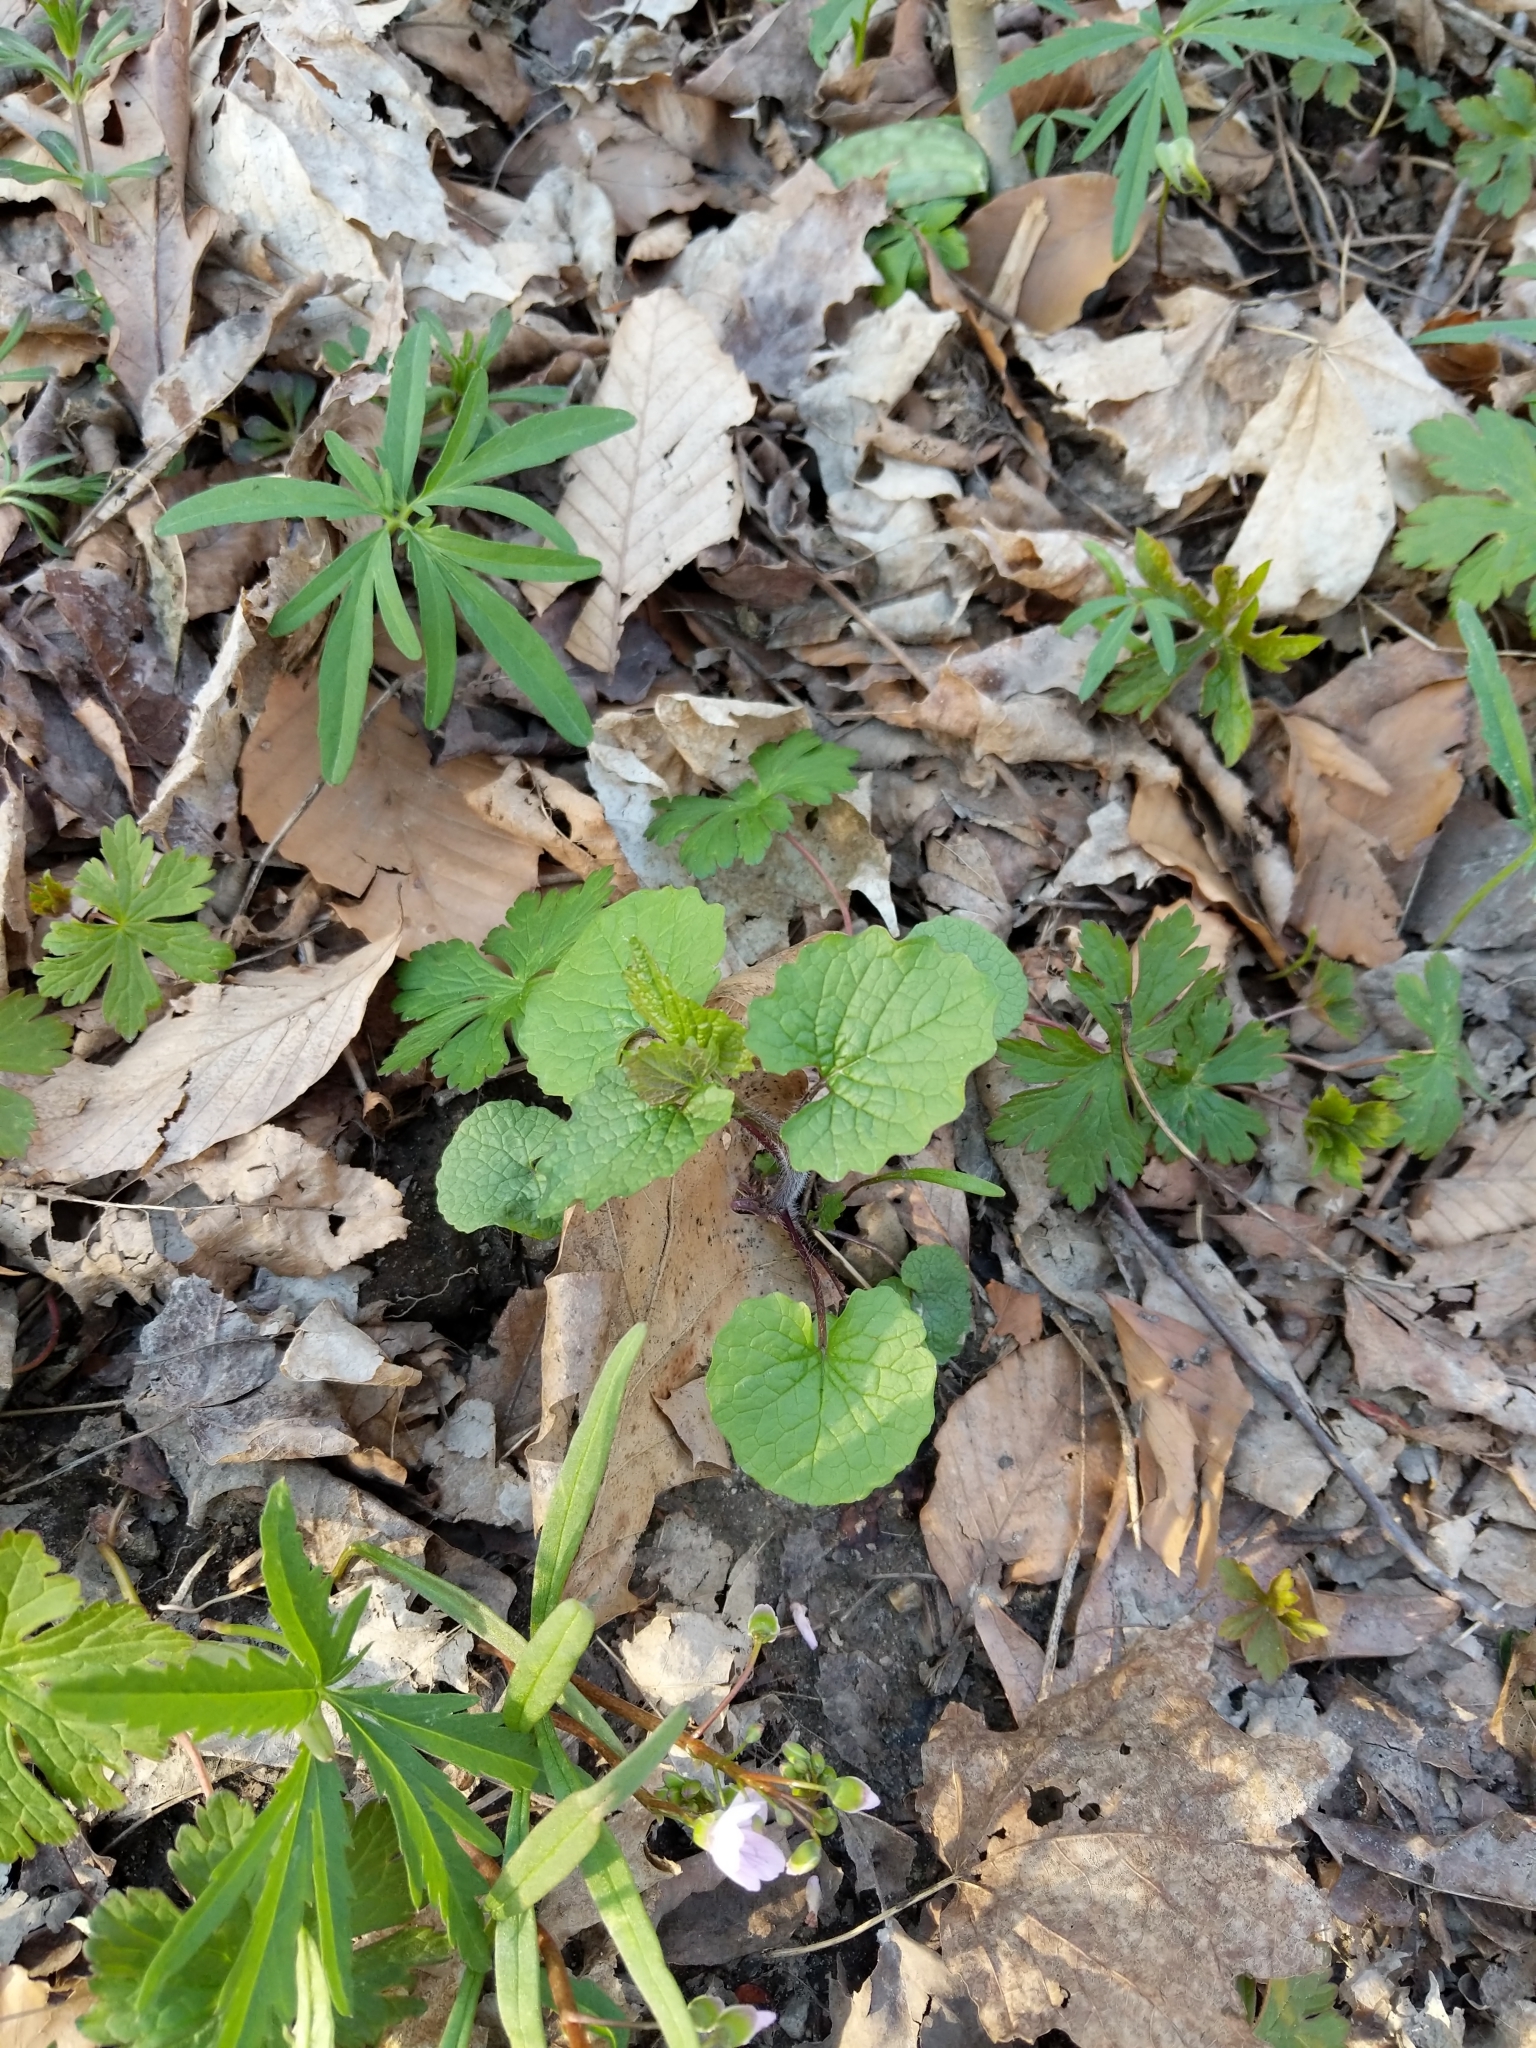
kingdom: Plantae
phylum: Tracheophyta
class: Magnoliopsida
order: Brassicales
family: Brassicaceae
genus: Alliaria
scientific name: Alliaria petiolata
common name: Garlic mustard
